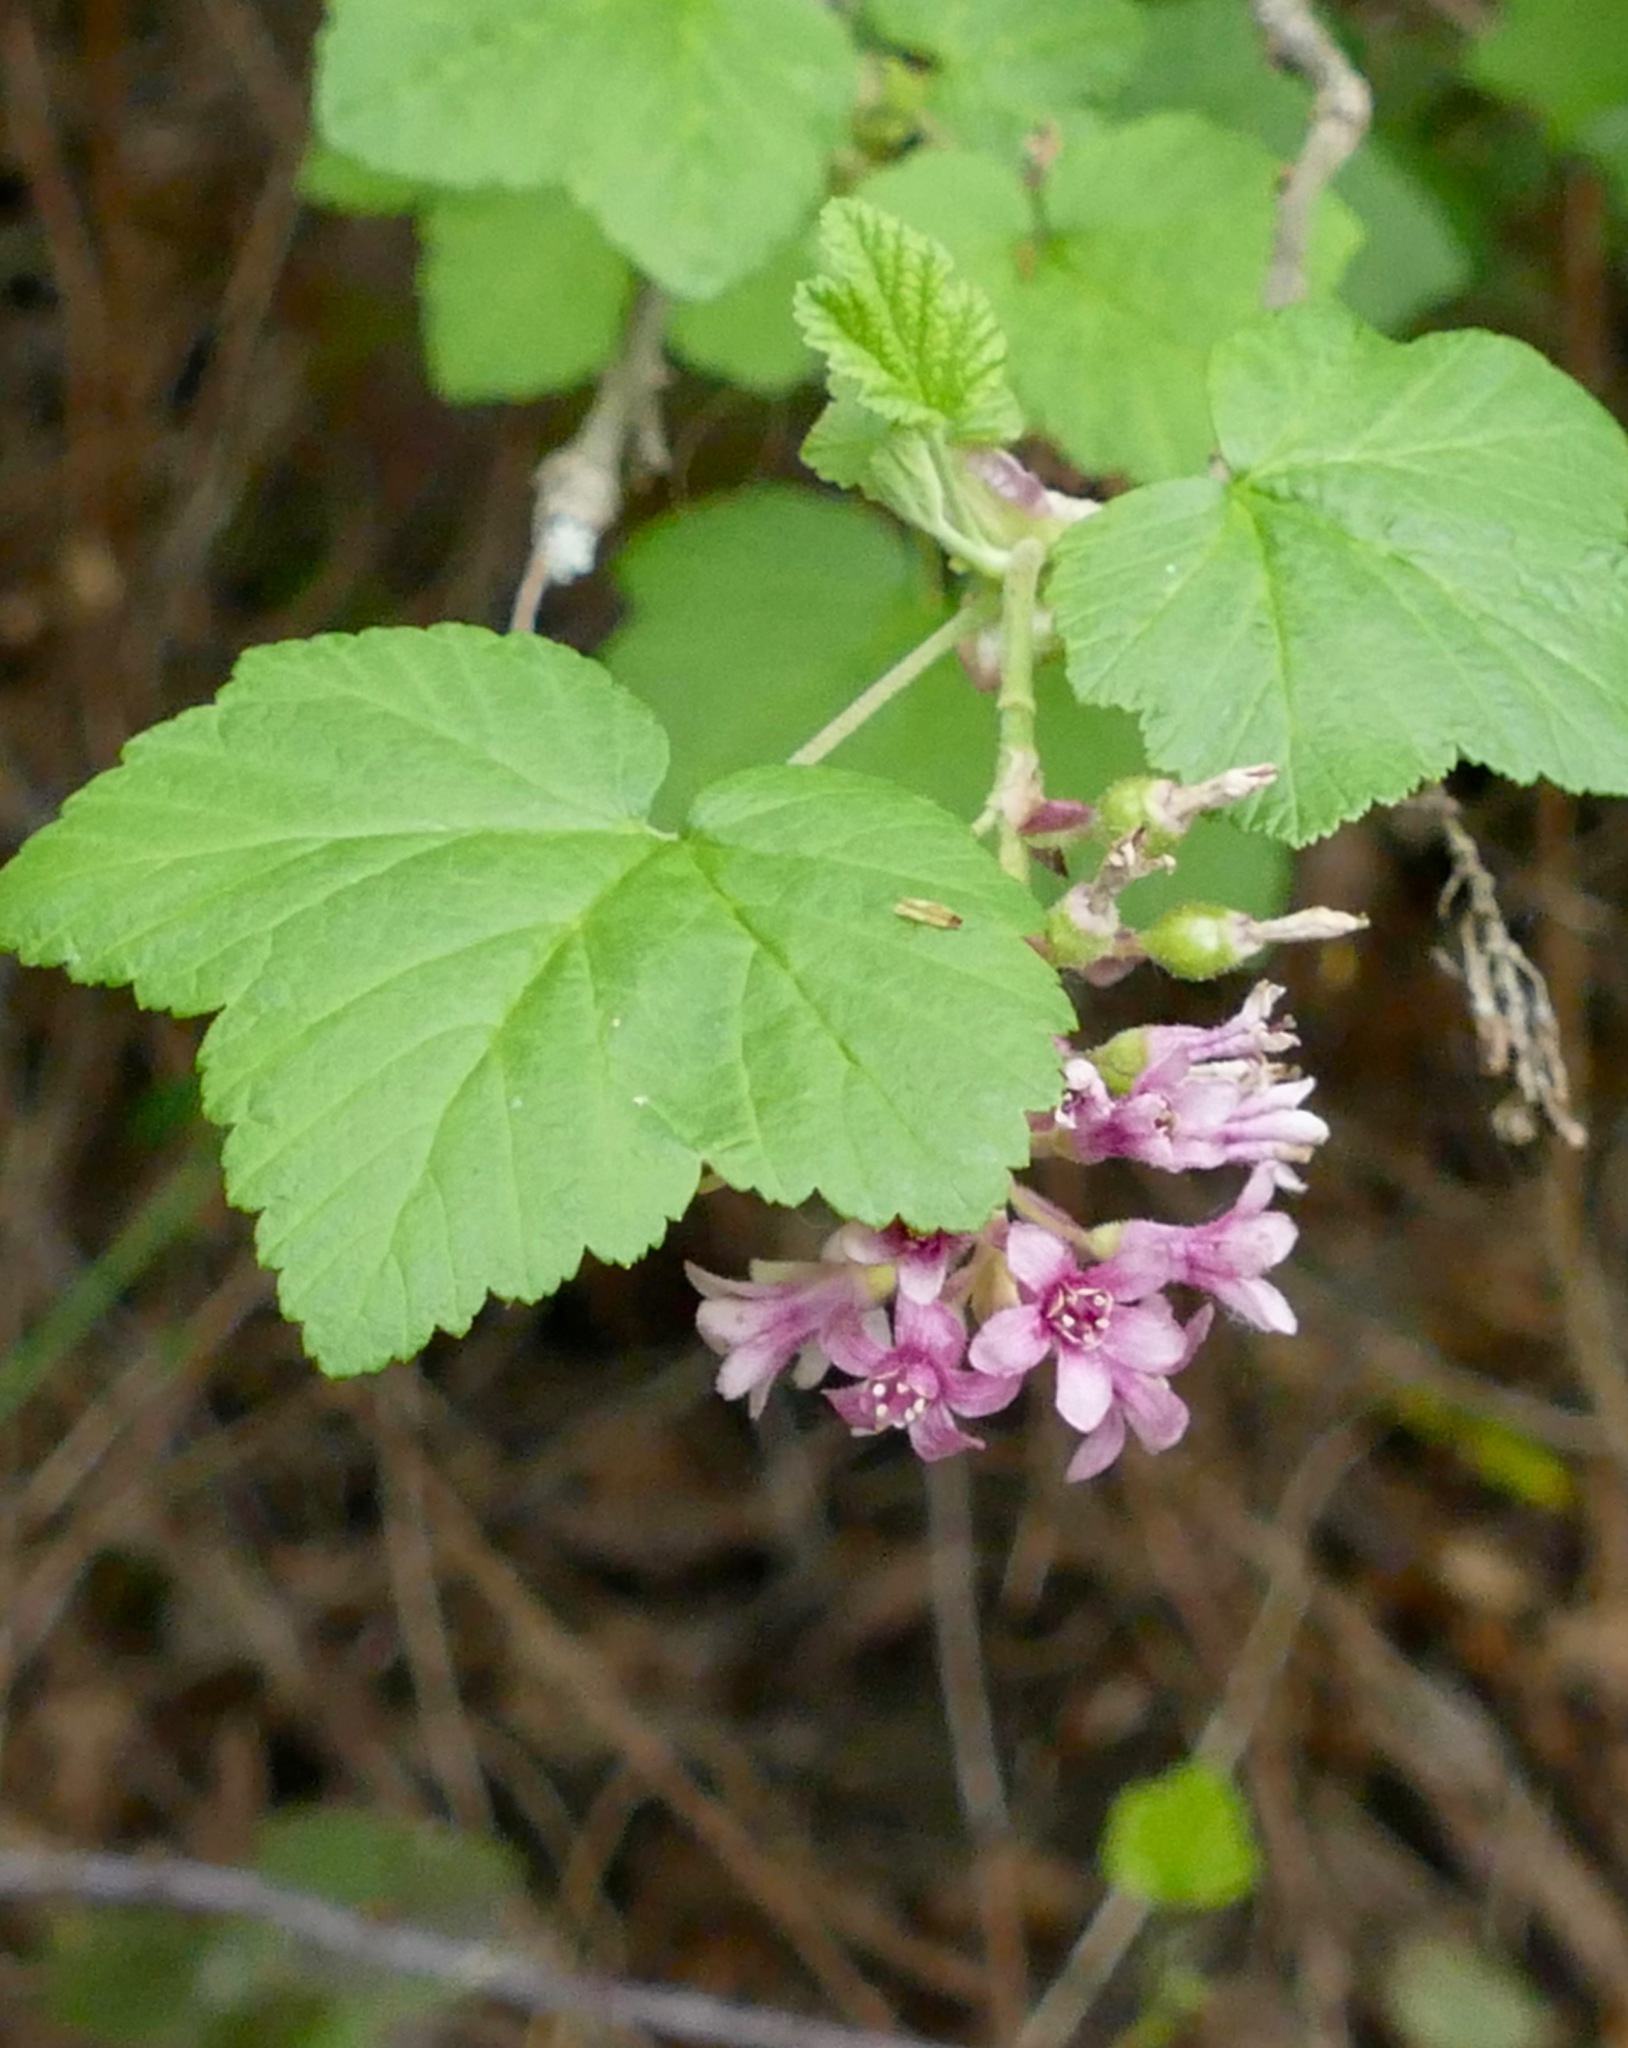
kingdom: Plantae
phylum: Tracheophyta
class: Magnoliopsida
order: Saxifragales
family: Grossulariaceae
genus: Ribes
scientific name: Ribes sanguineum
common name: Flowering currant
